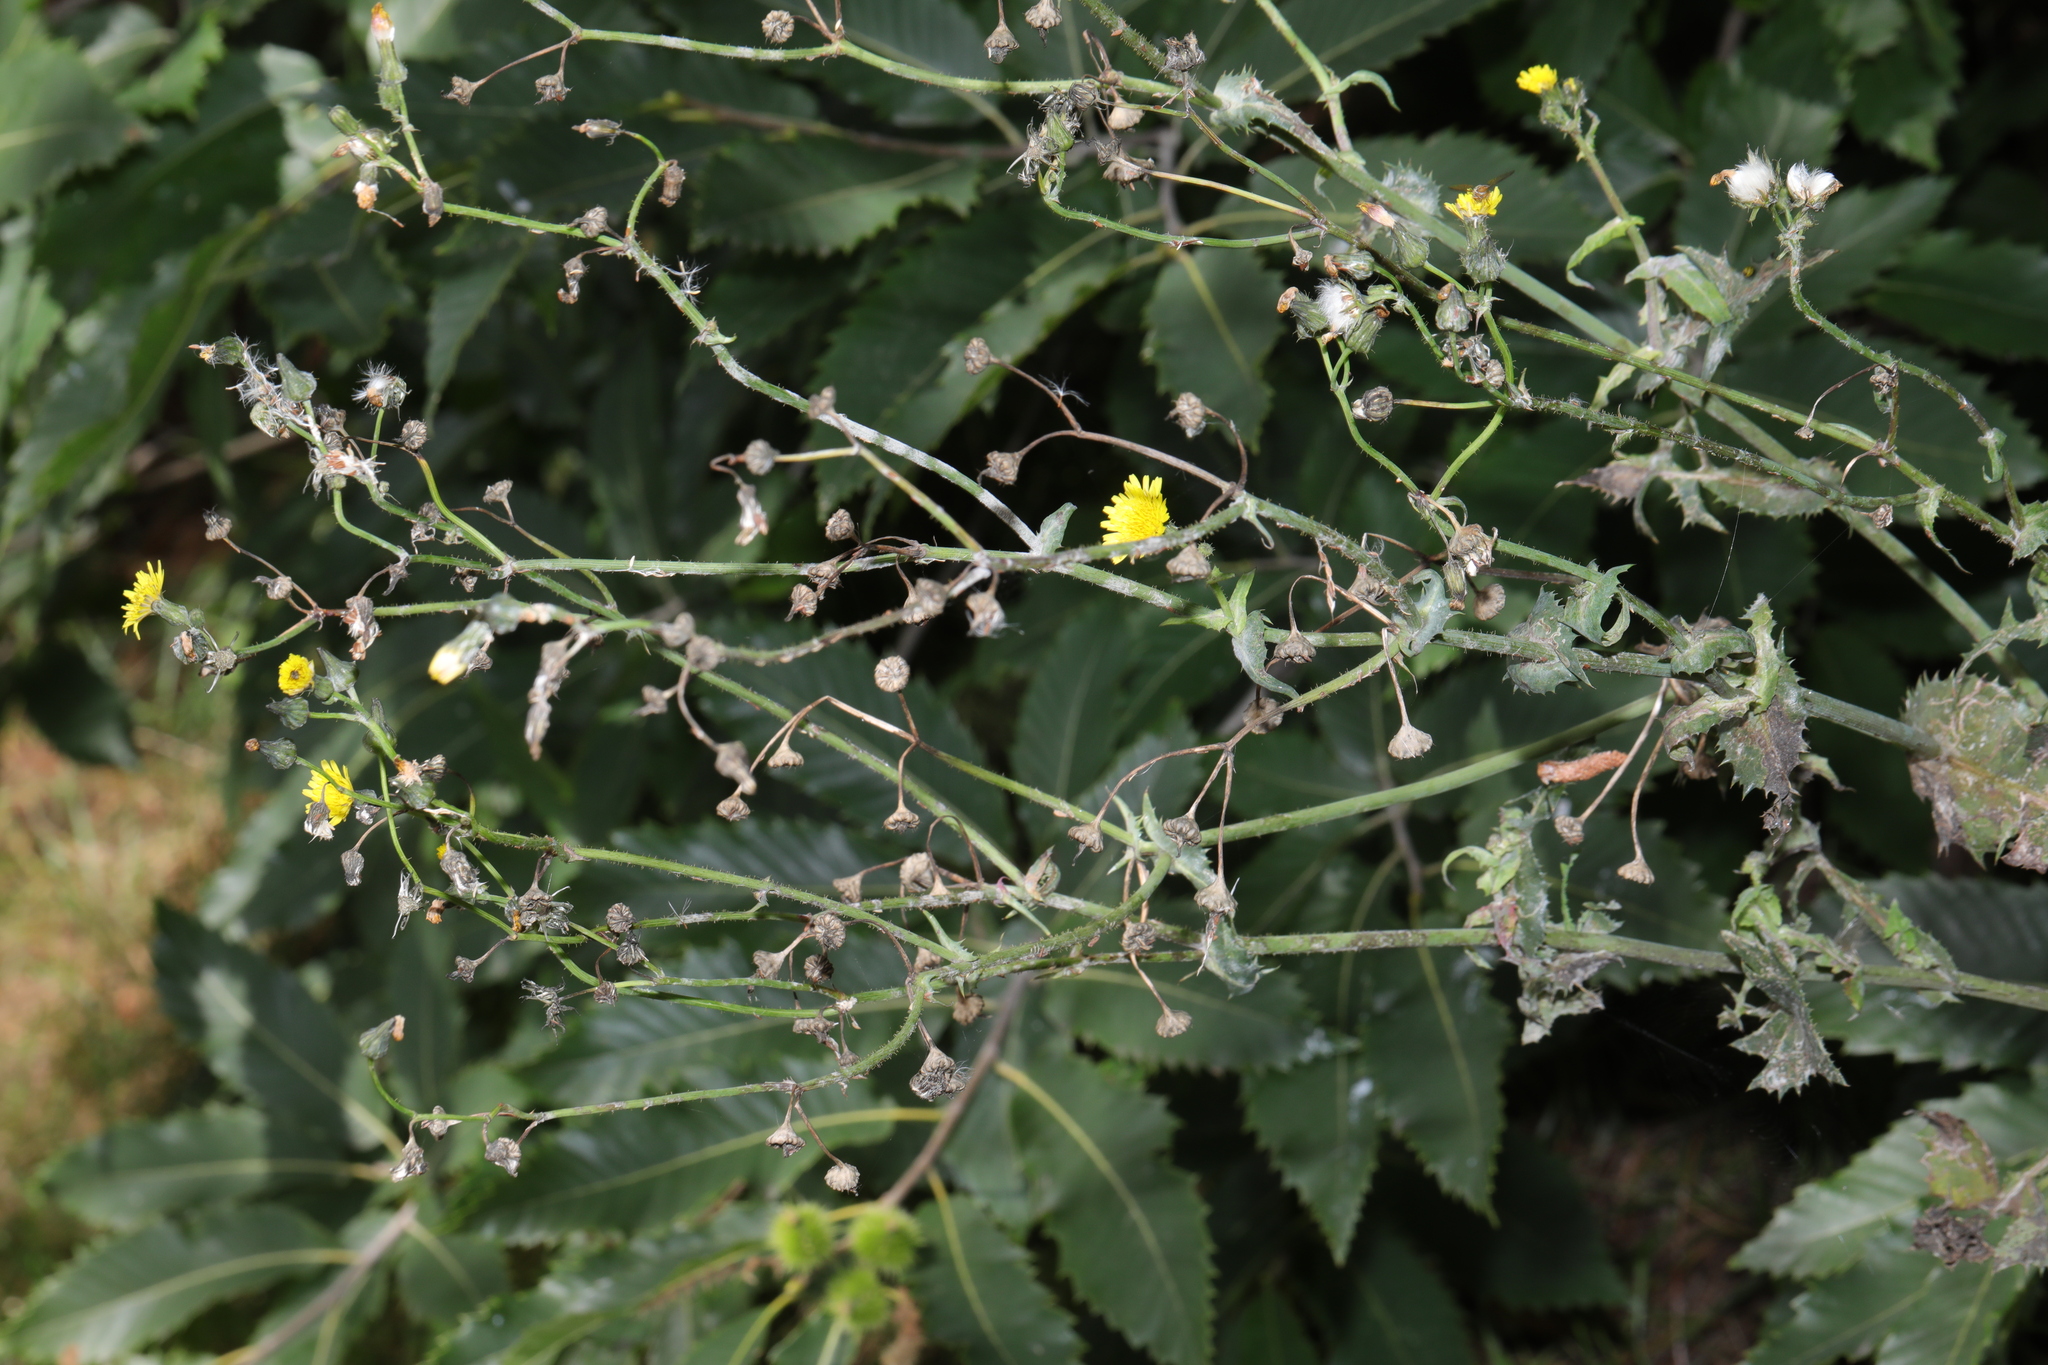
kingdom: Plantae
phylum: Tracheophyta
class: Magnoliopsida
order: Asterales
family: Asteraceae
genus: Sonchus
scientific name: Sonchus oleraceus
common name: Common sowthistle
